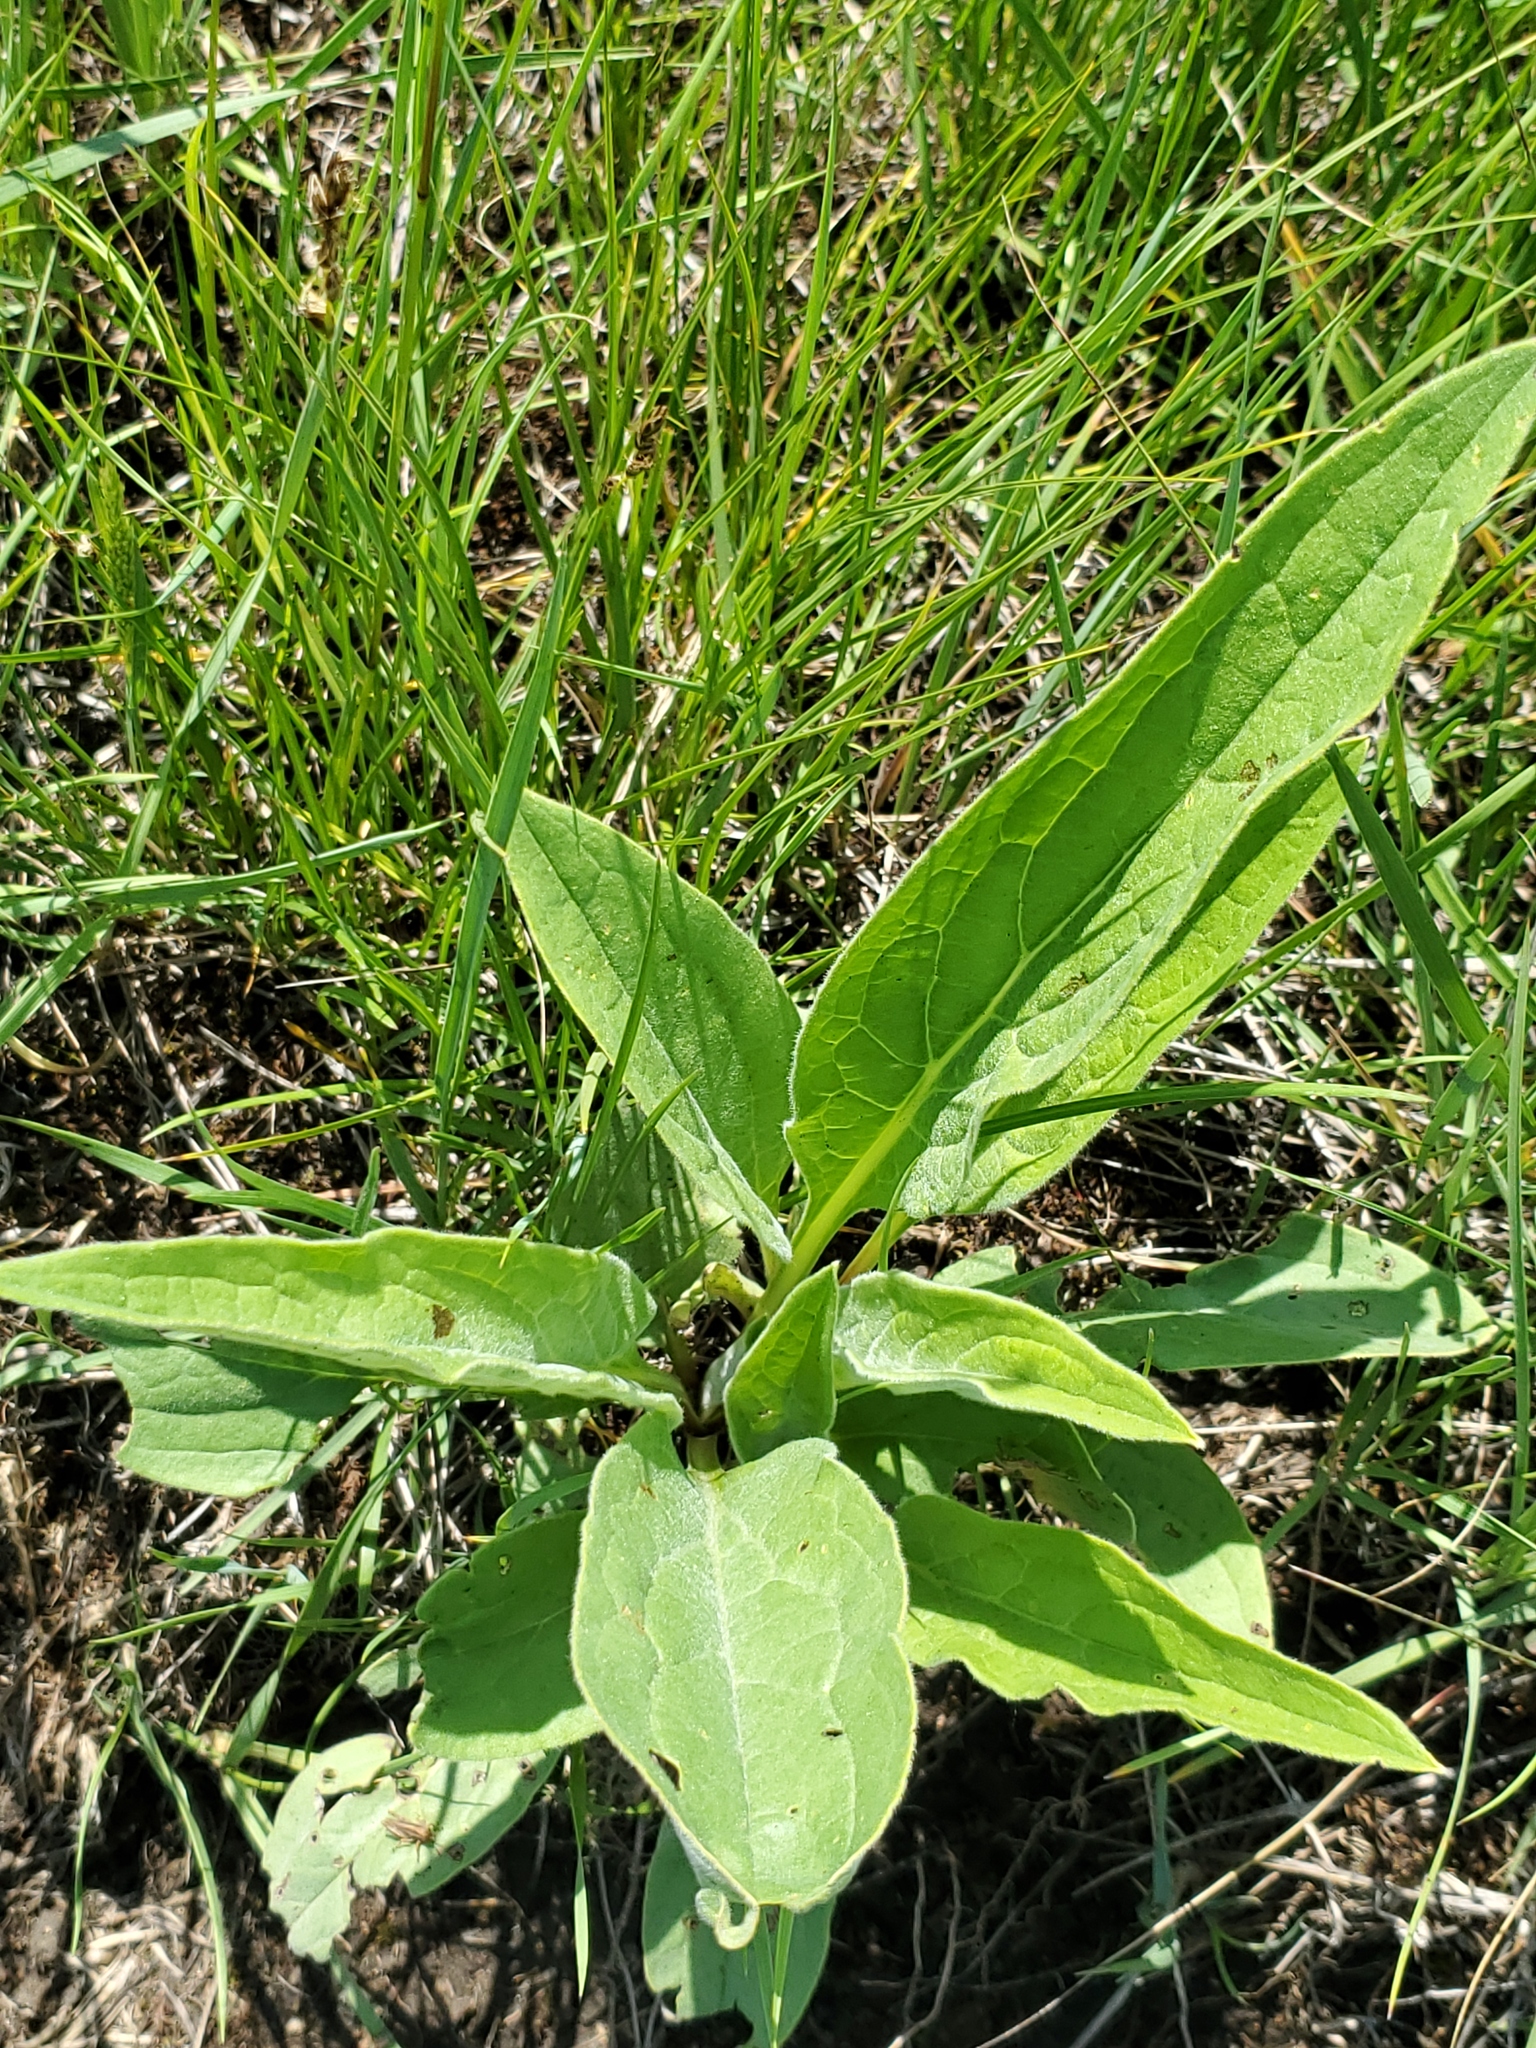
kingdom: Plantae
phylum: Tracheophyta
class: Magnoliopsida
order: Boraginales
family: Boraginaceae
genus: Cynoglossum
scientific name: Cynoglossum officinale
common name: Hound's-tongue
